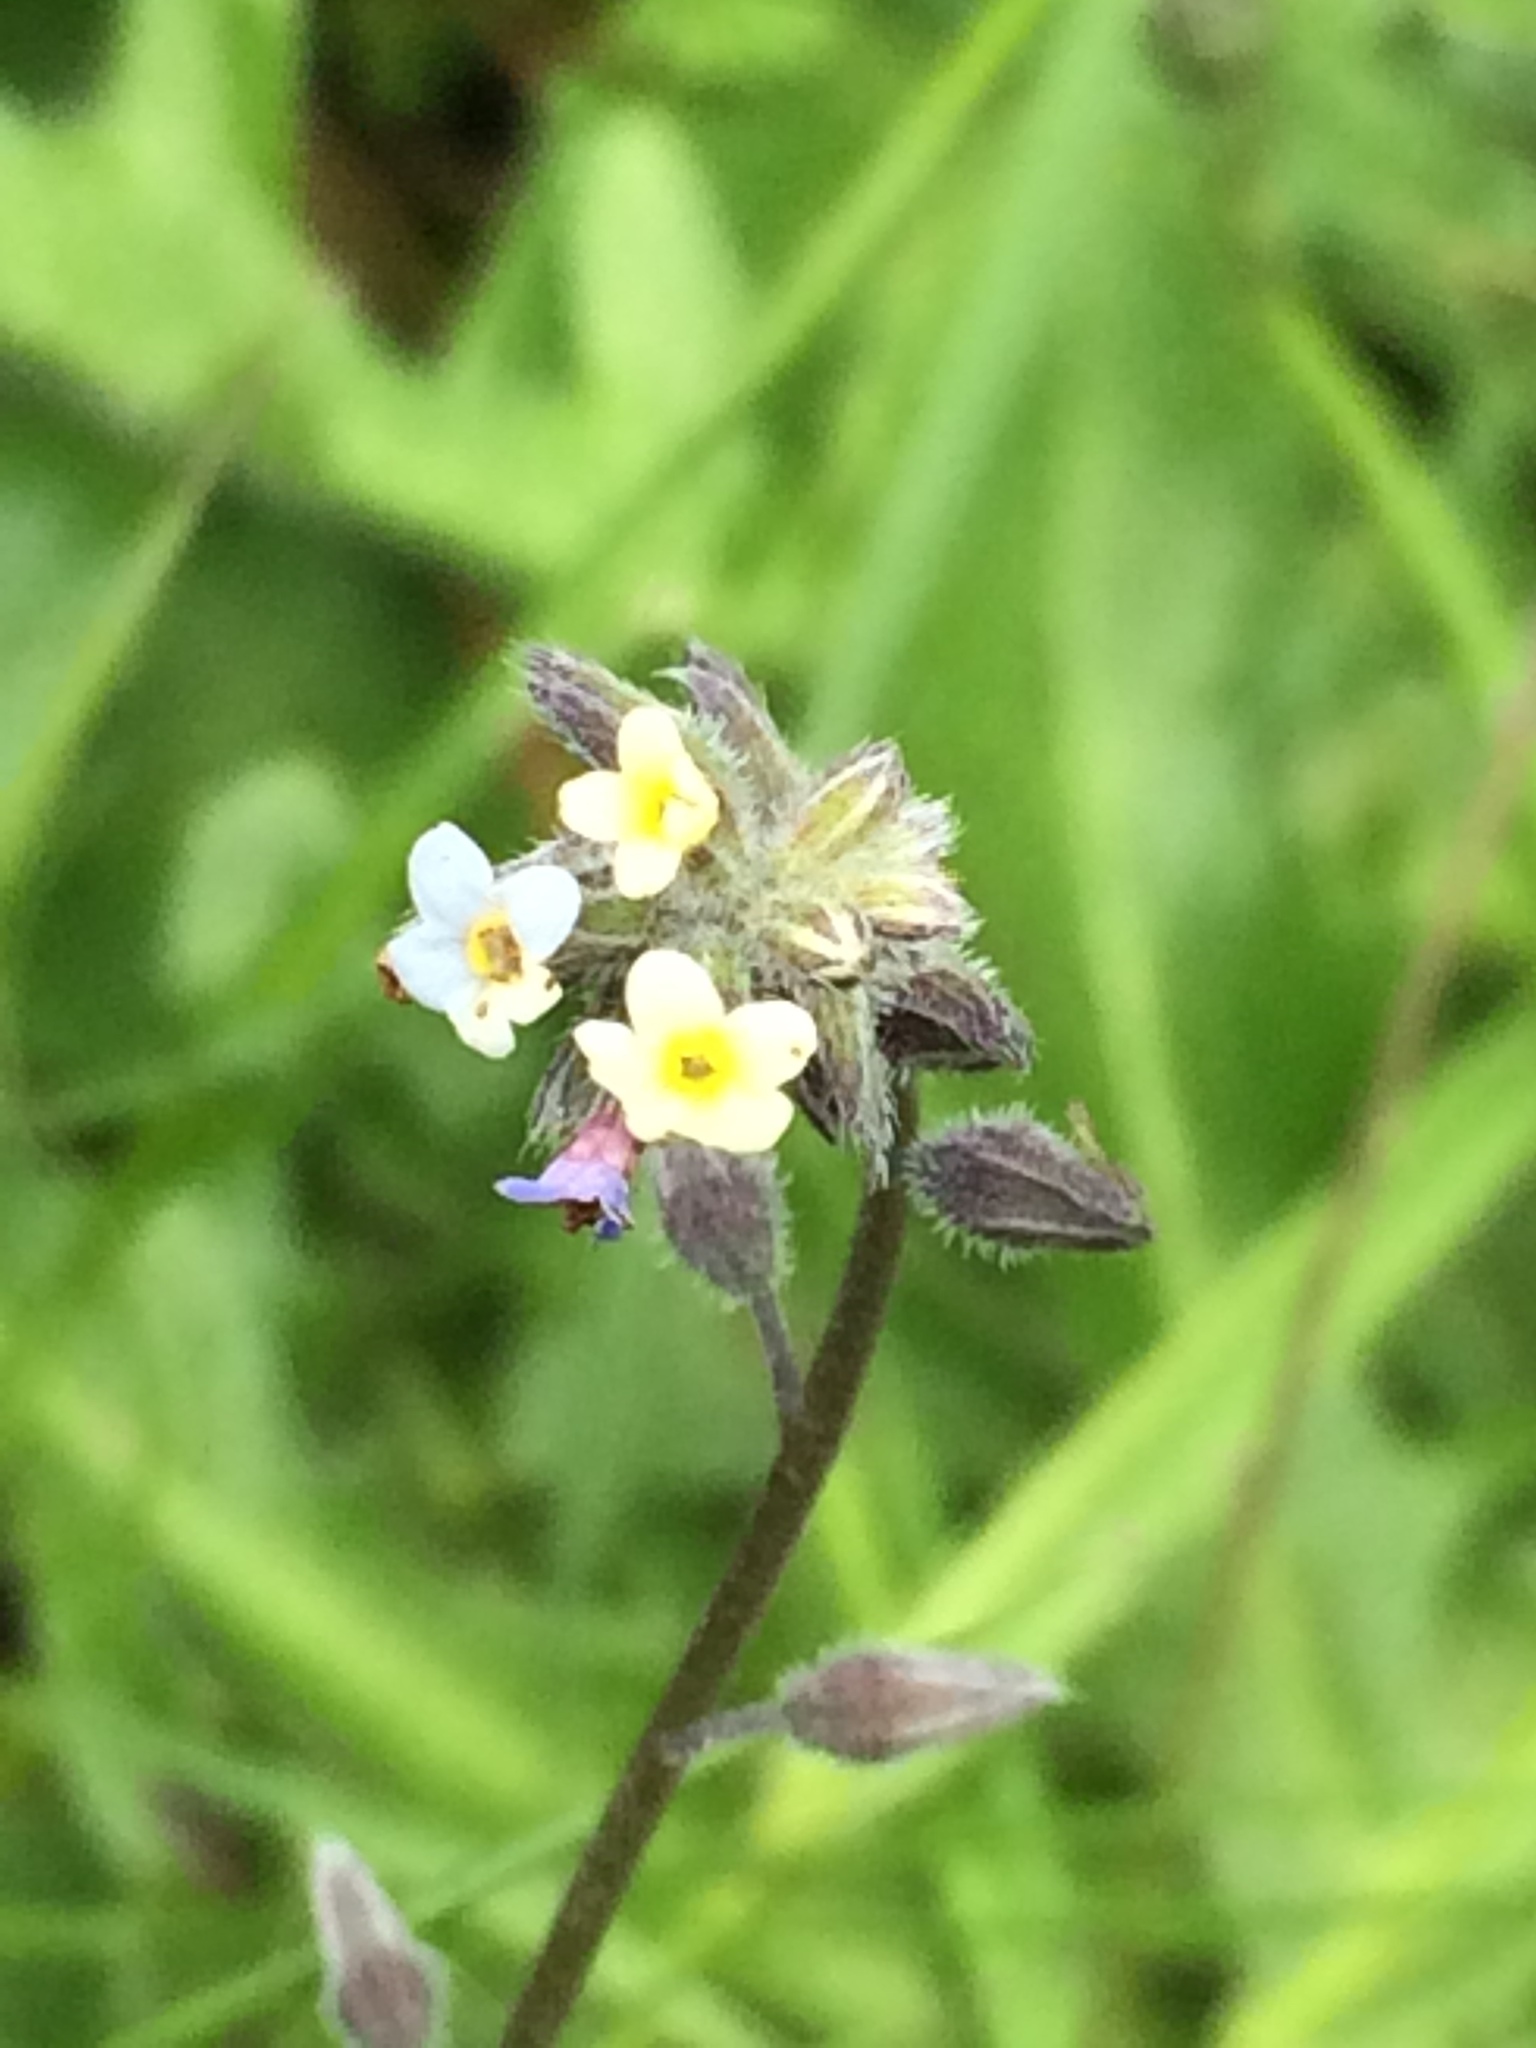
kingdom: Plantae
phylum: Tracheophyta
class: Magnoliopsida
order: Boraginales
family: Boraginaceae
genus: Myosotis
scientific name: Myosotis discolor
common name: Changing forget-me-not
